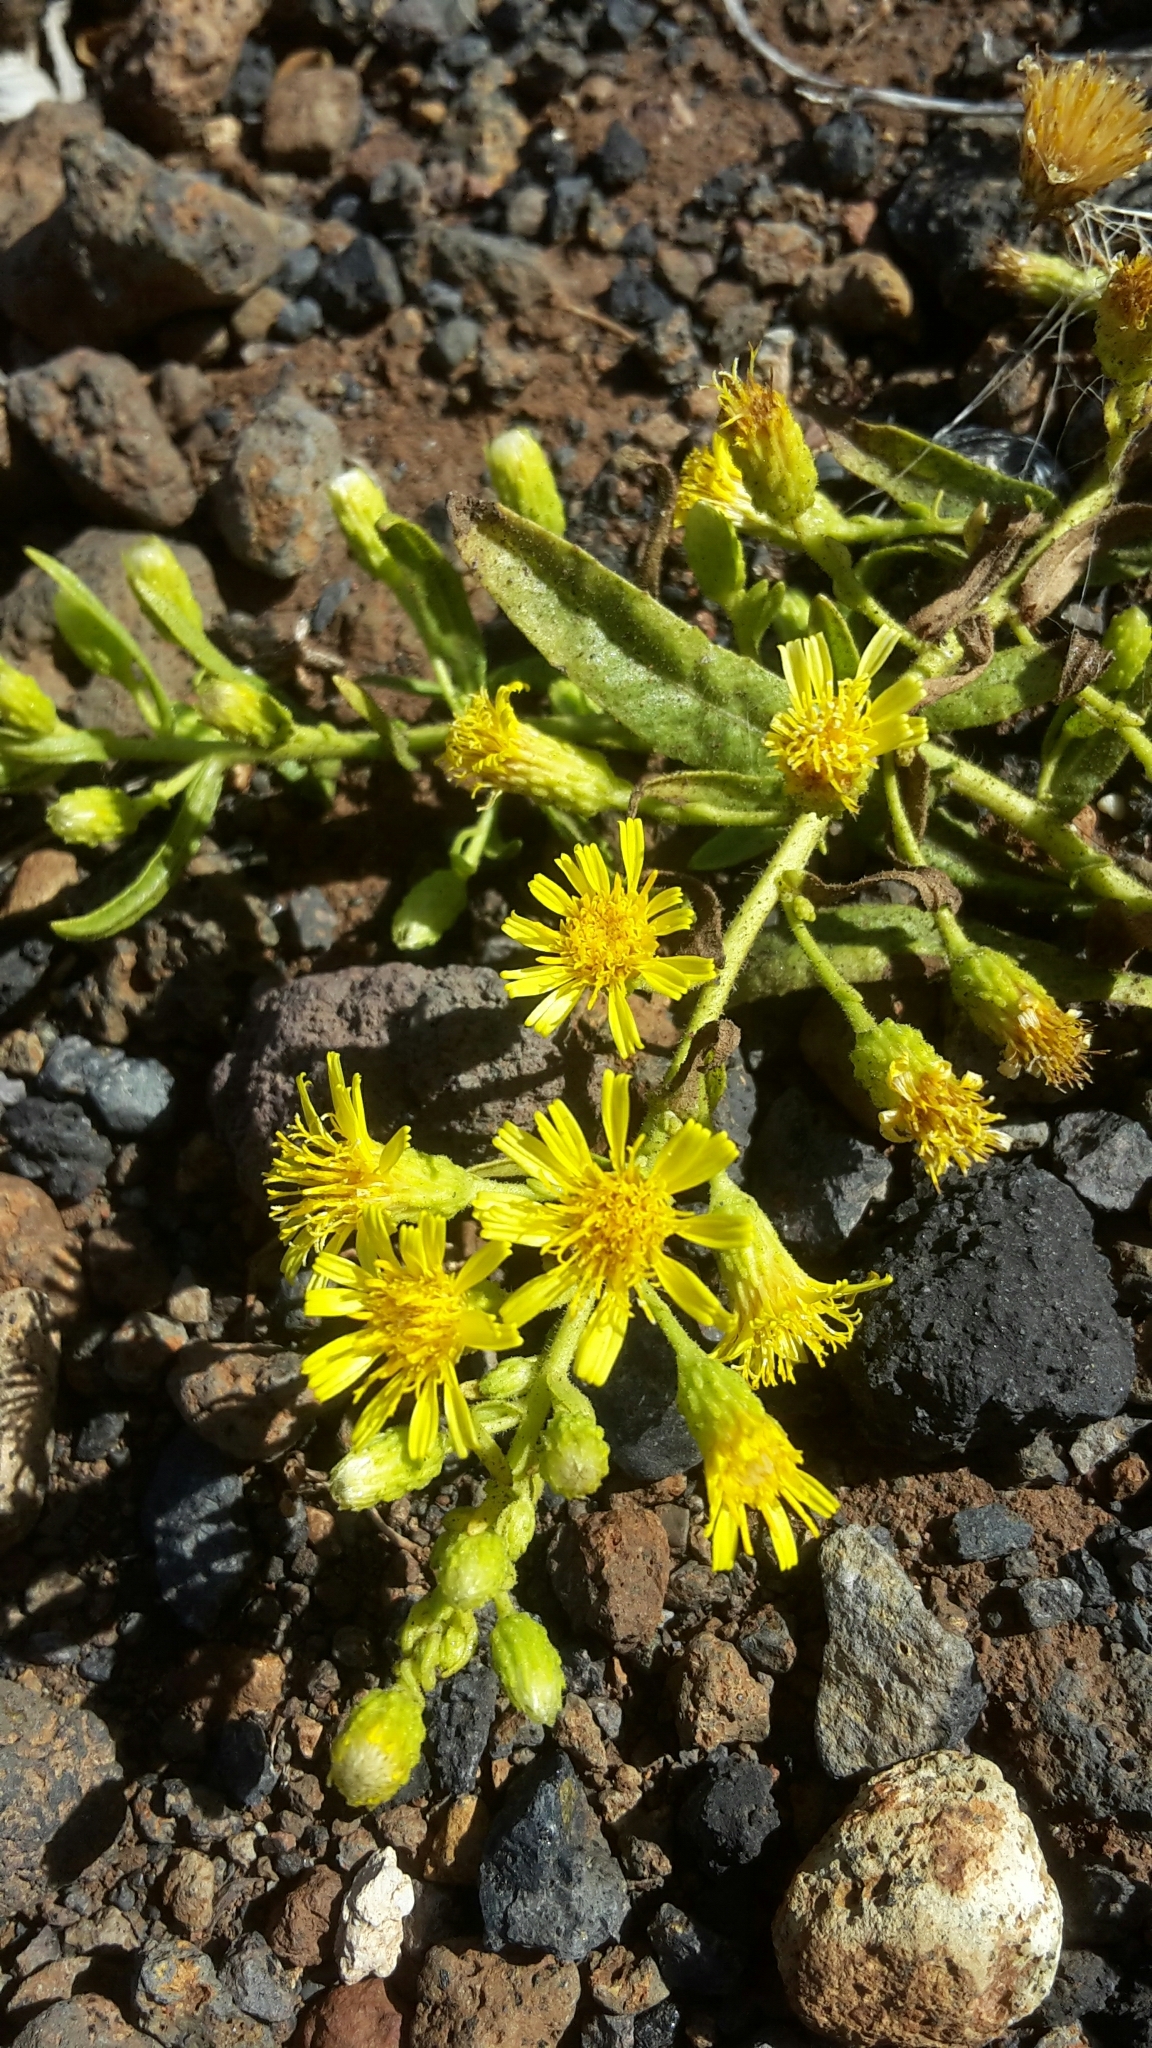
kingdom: Plantae
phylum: Tracheophyta
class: Magnoliopsida
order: Asterales
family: Asteraceae
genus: Dittrichia
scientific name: Dittrichia viscosa
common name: Woody fleabane
